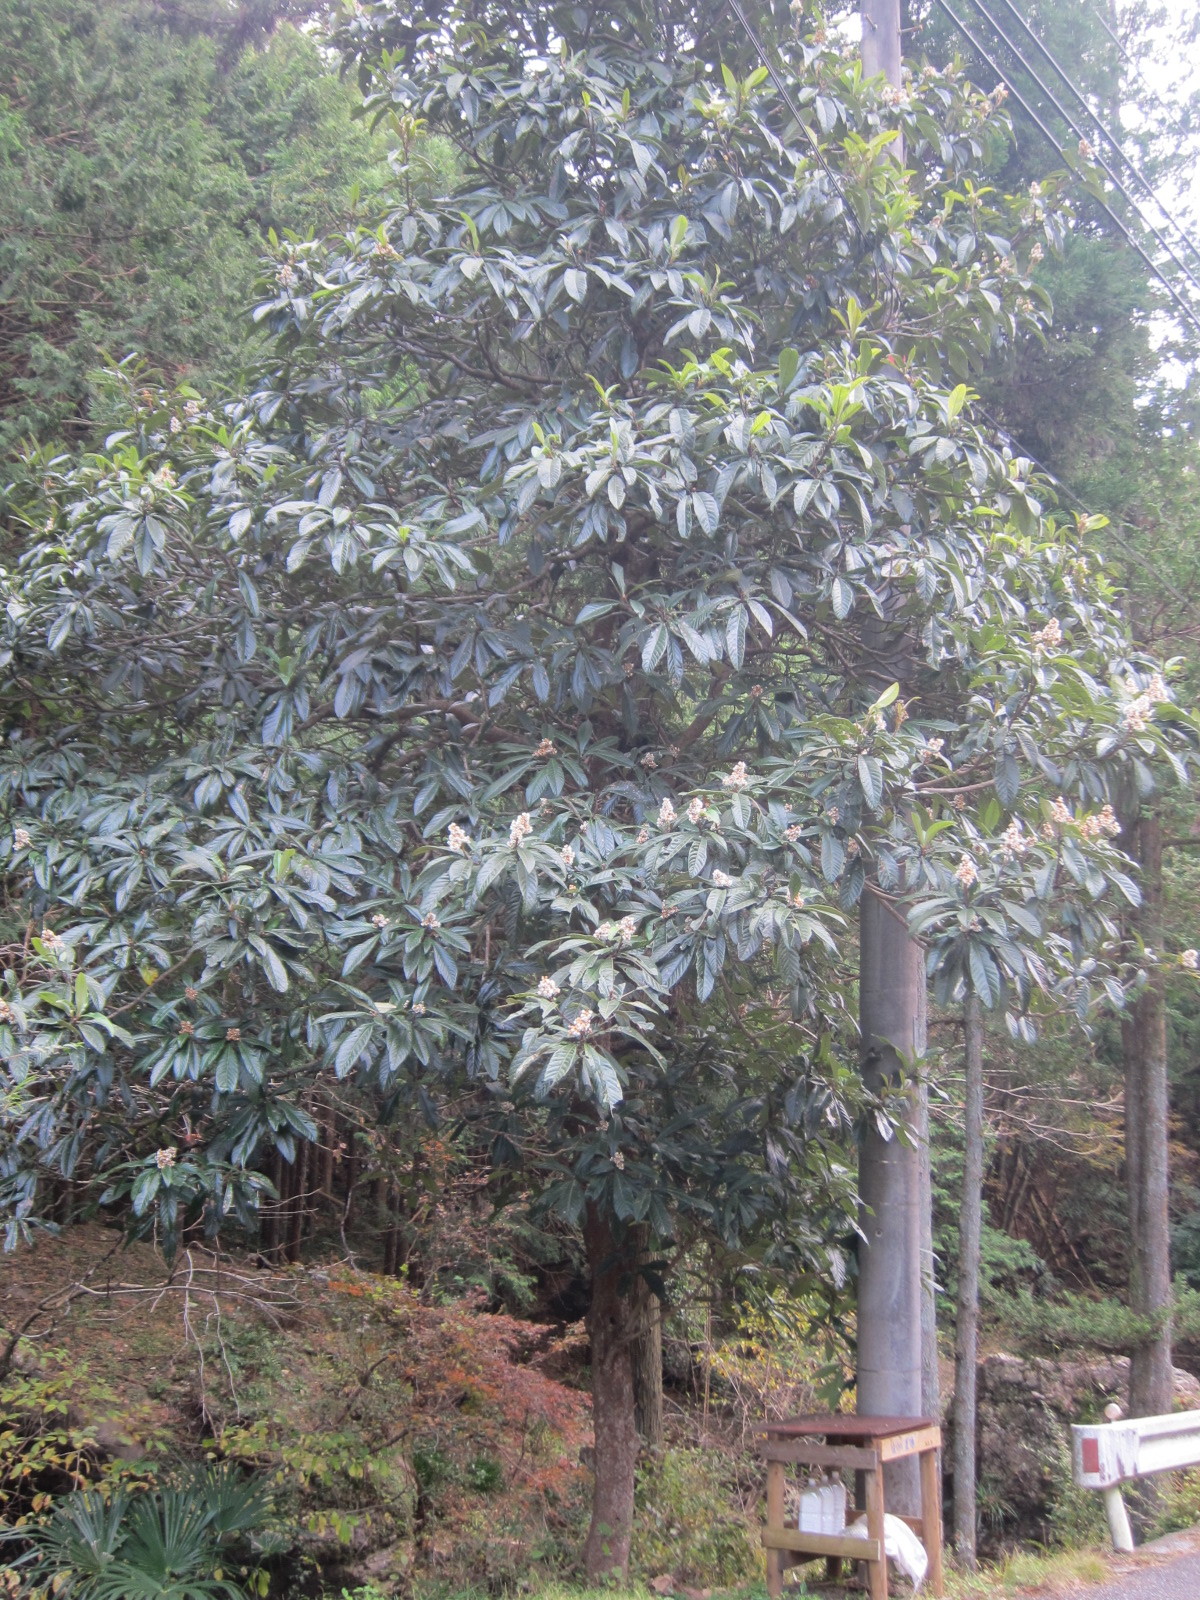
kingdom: Plantae
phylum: Tracheophyta
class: Magnoliopsida
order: Rosales
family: Rosaceae
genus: Rhaphiolepis
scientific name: Rhaphiolepis bibas
